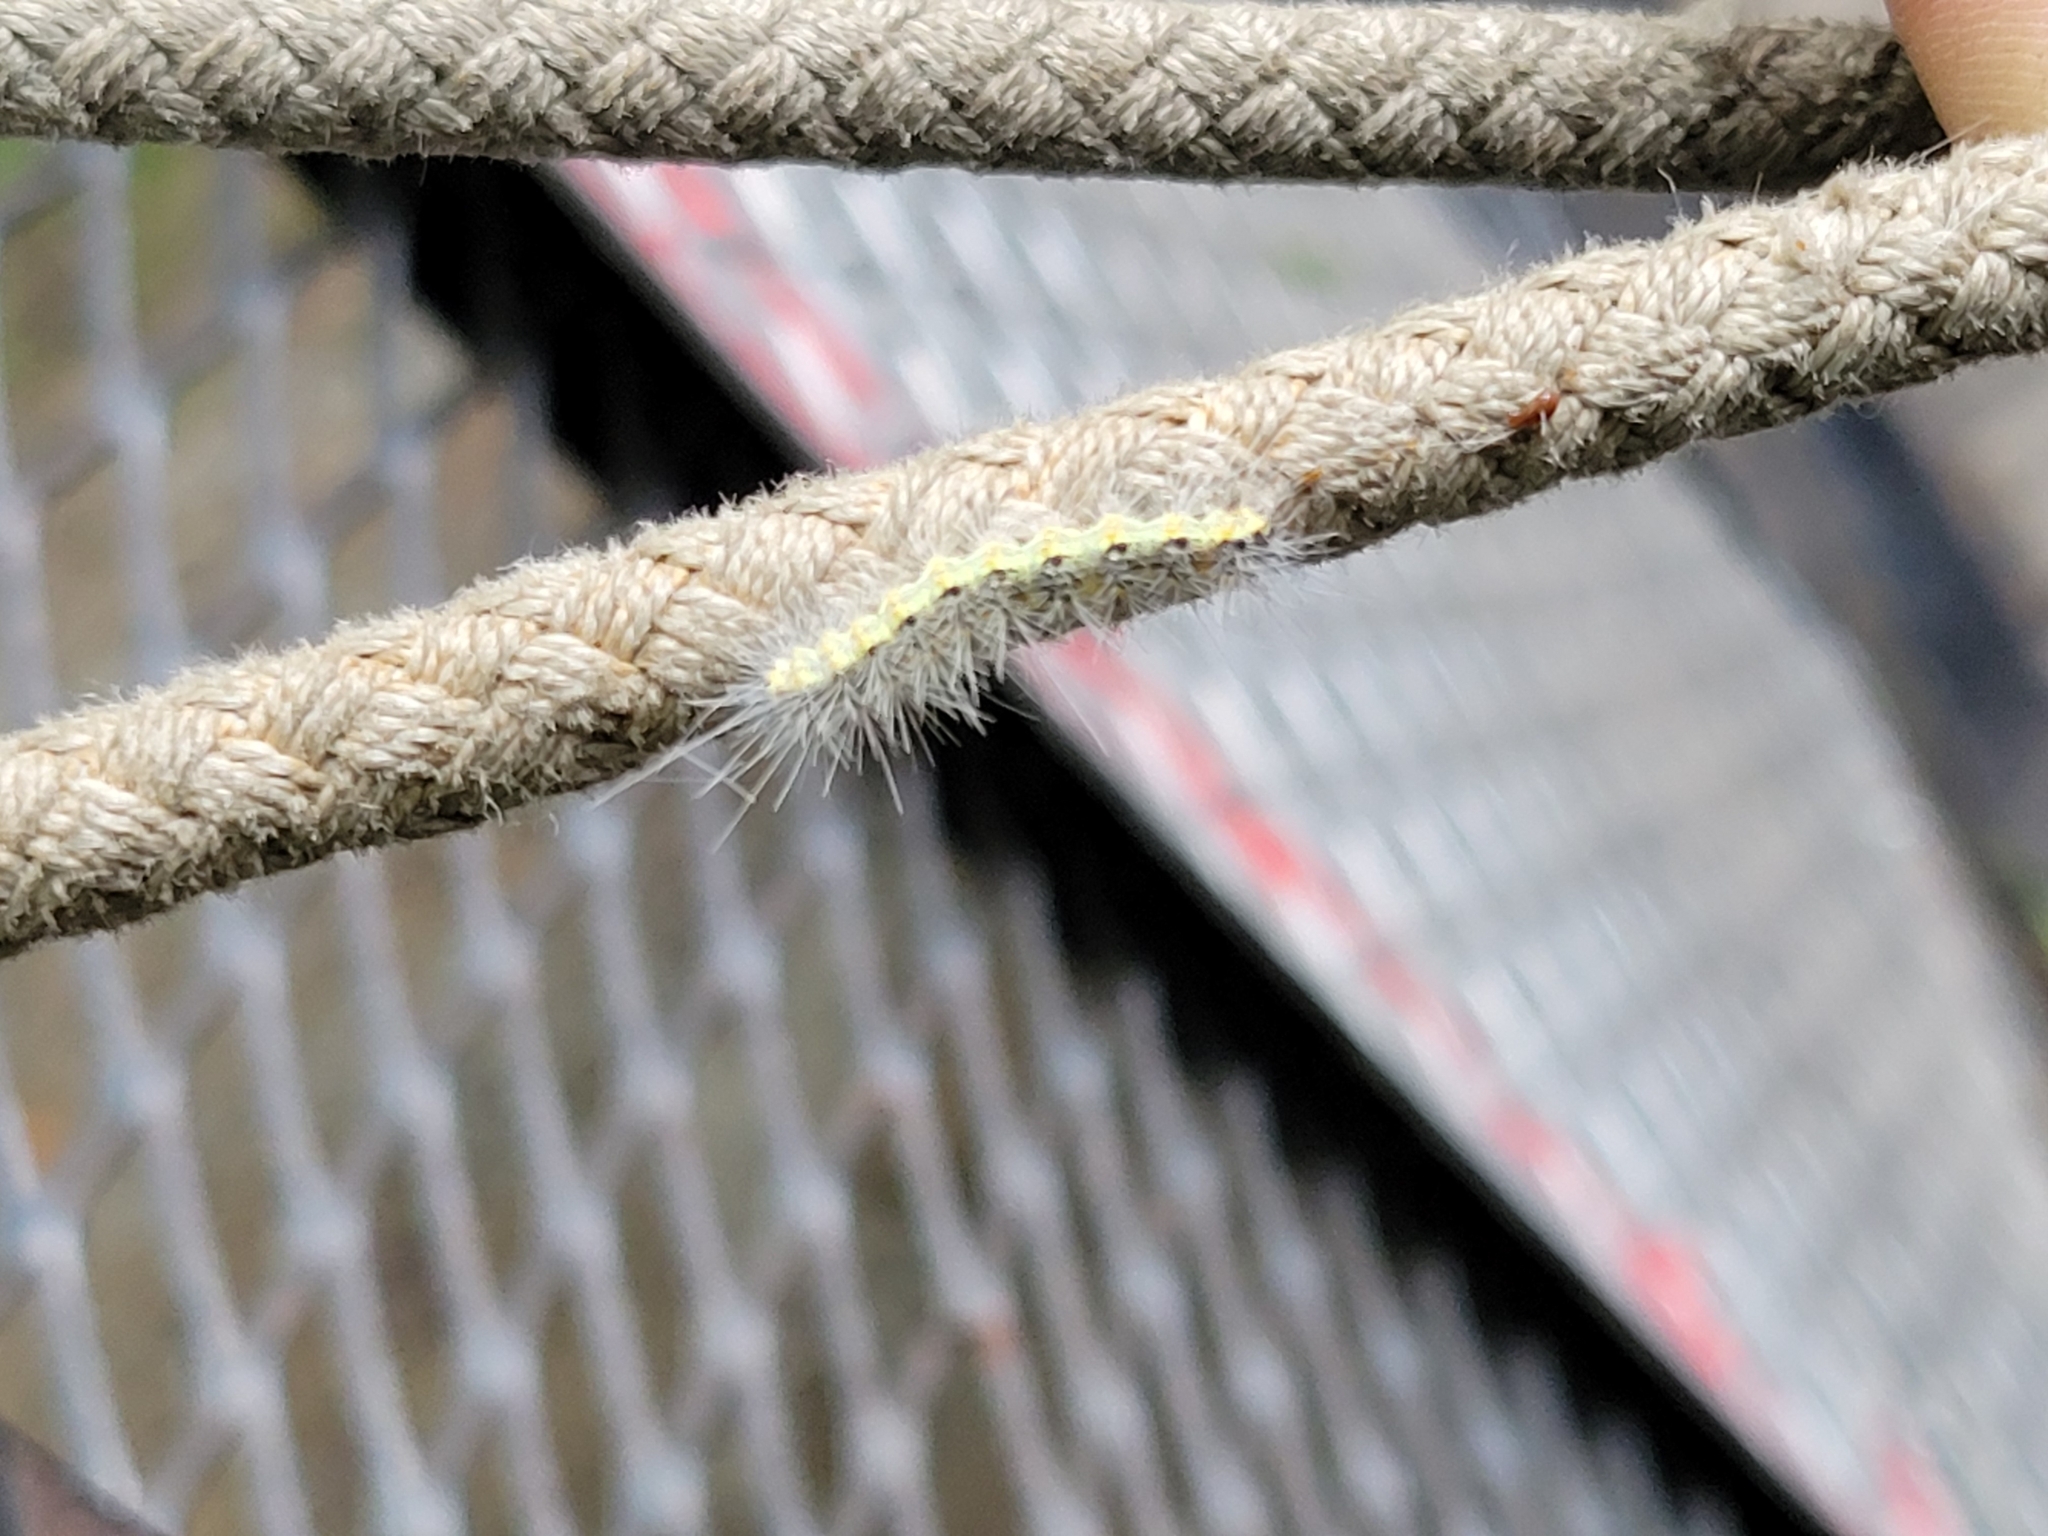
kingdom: Animalia
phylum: Arthropoda
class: Insecta
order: Lepidoptera
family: Erebidae
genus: Hyphantria
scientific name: Hyphantria cunea
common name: American white moth
